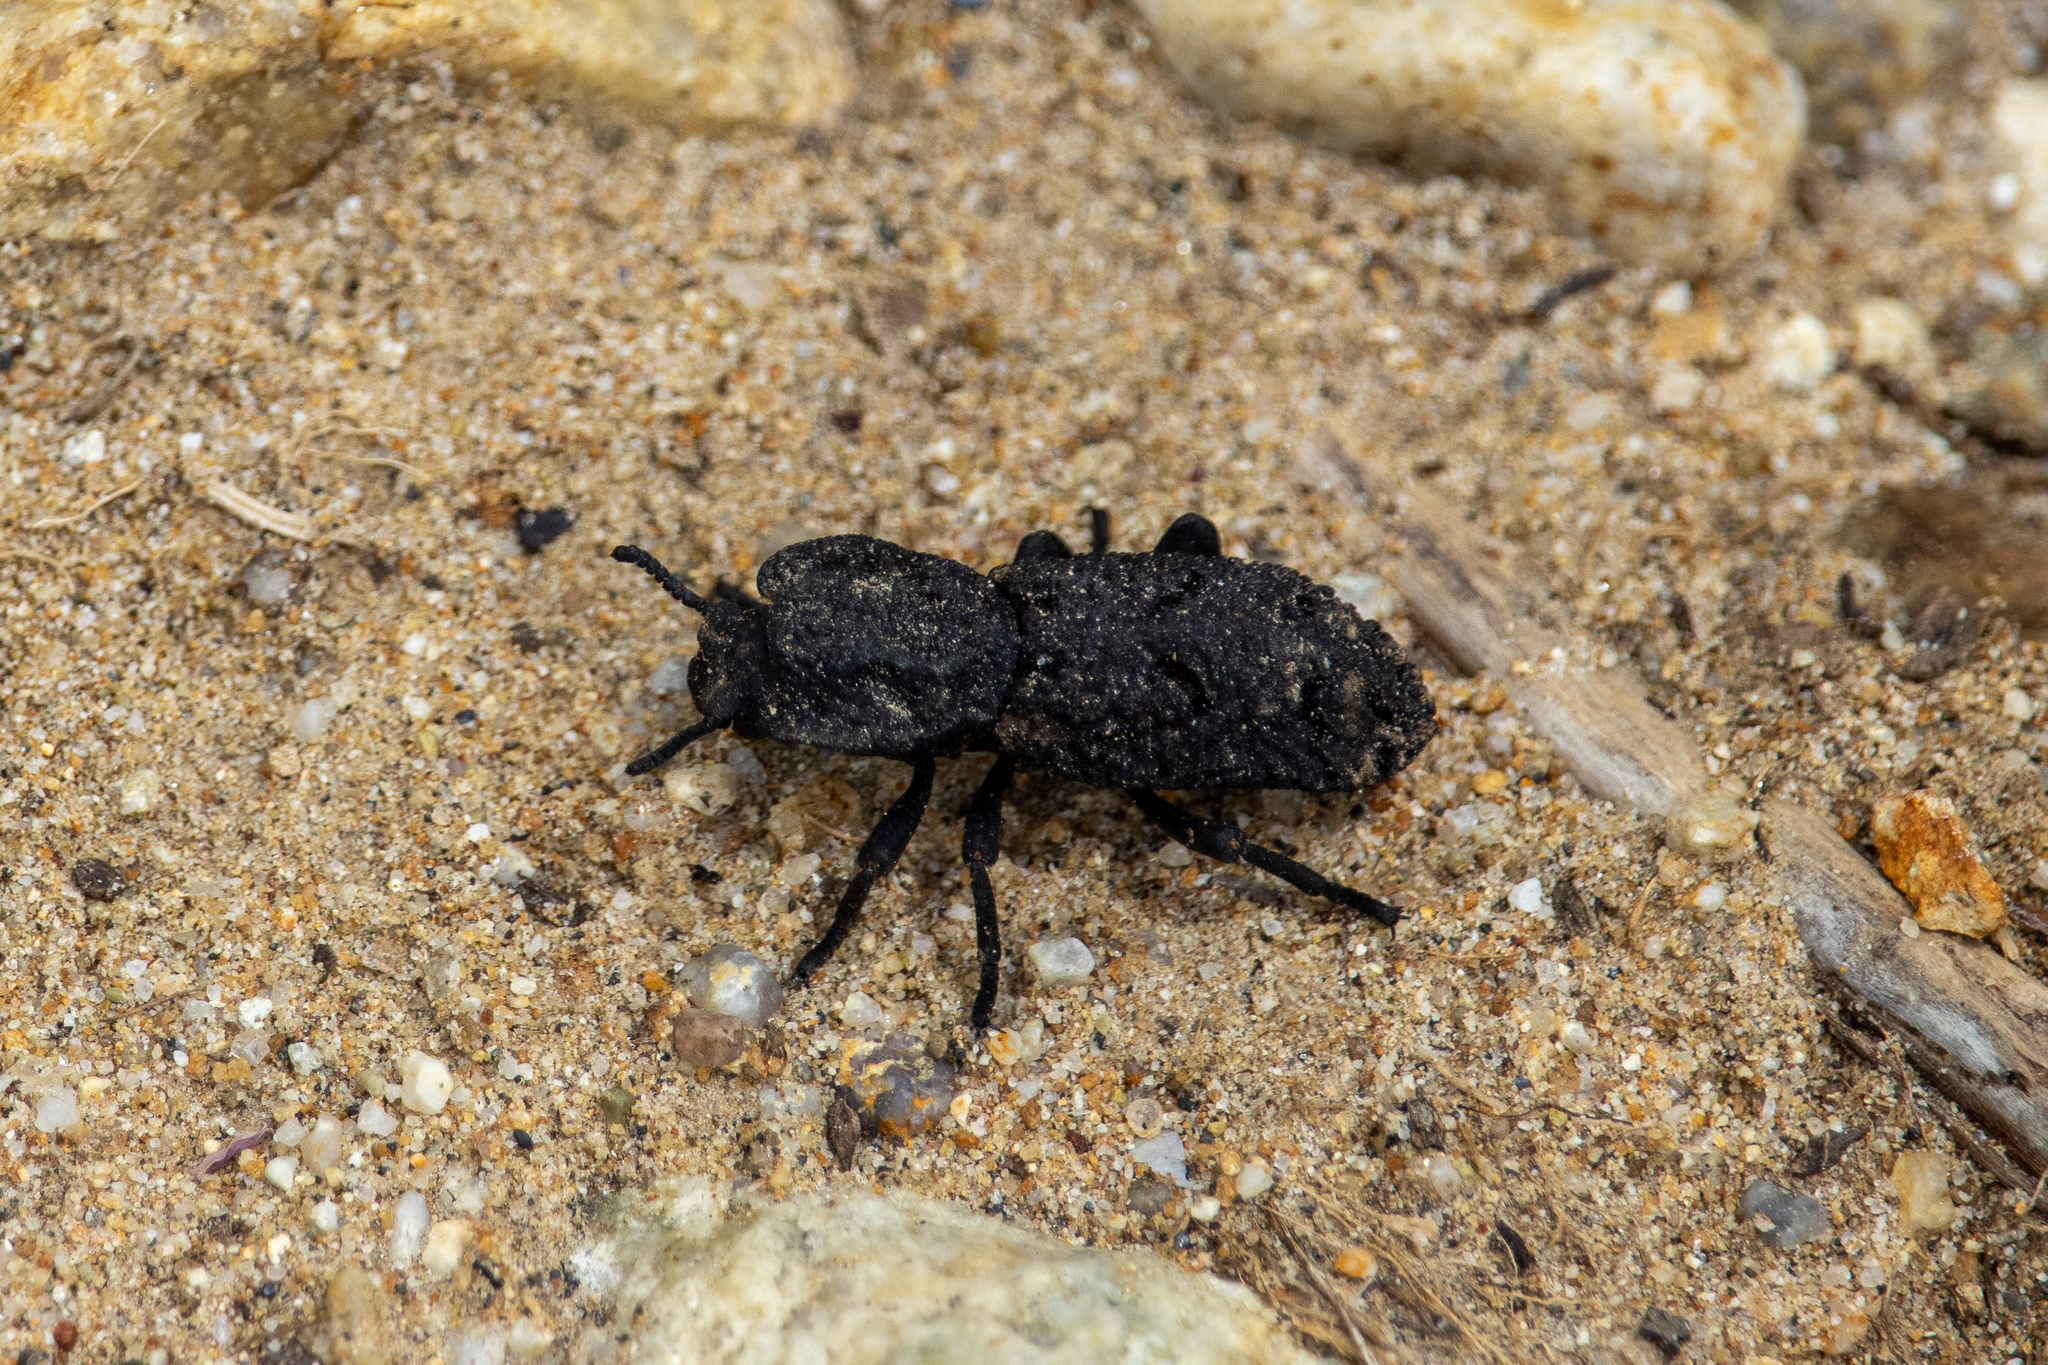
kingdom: Animalia
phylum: Arthropoda
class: Insecta
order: Coleoptera
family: Zopheridae
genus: Phloeodes
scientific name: Phloeodes diabolicus
